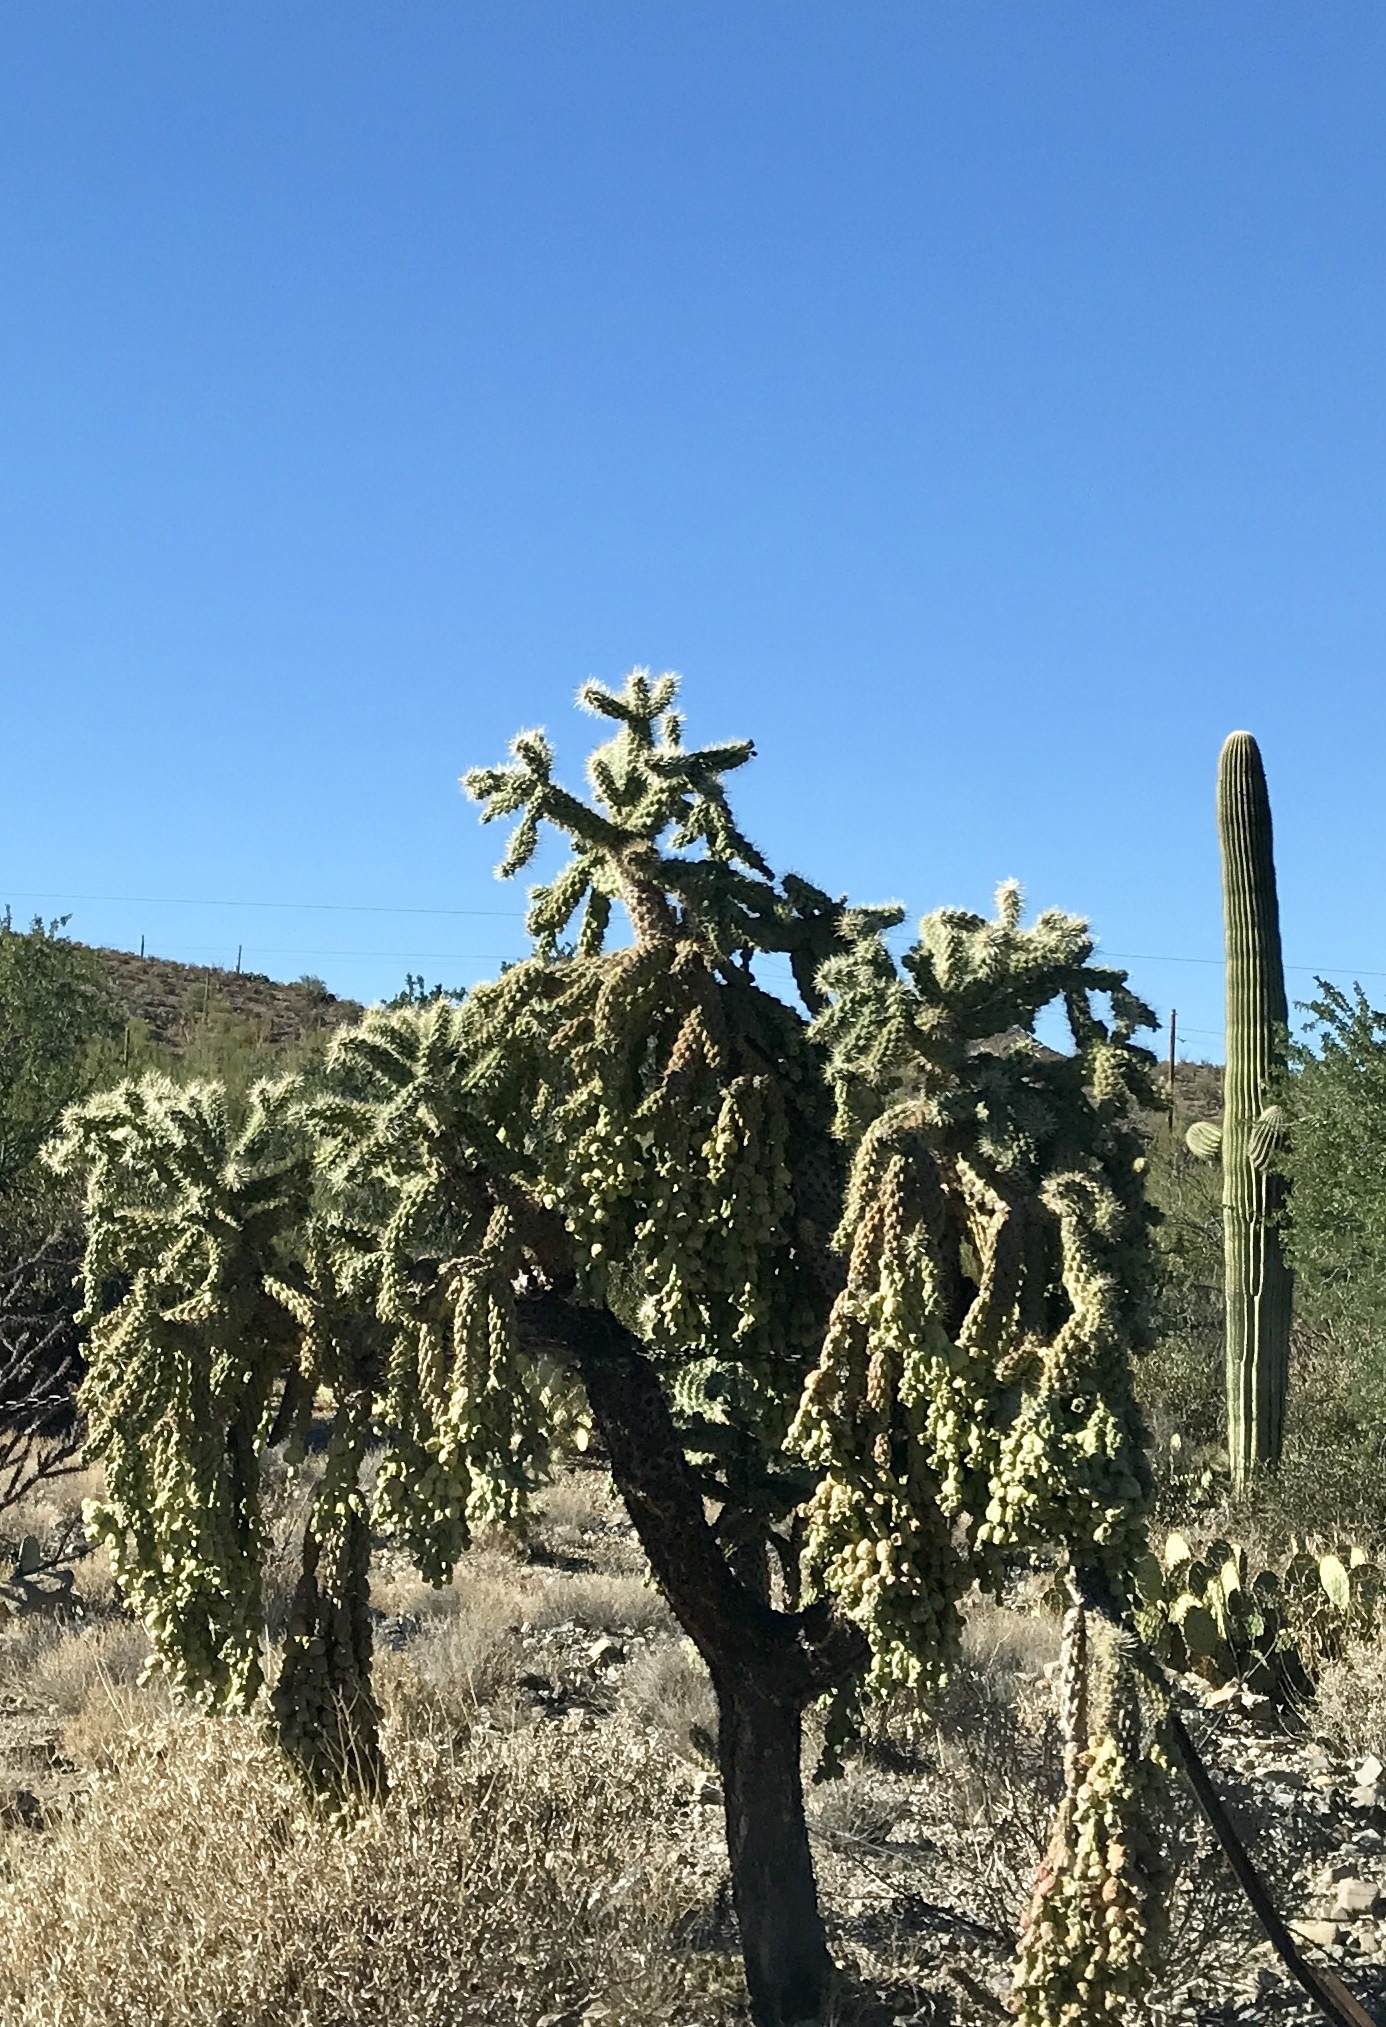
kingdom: Plantae
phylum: Tracheophyta
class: Magnoliopsida
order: Caryophyllales
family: Cactaceae
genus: Cylindropuntia
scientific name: Cylindropuntia fulgida
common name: Jumping cholla
